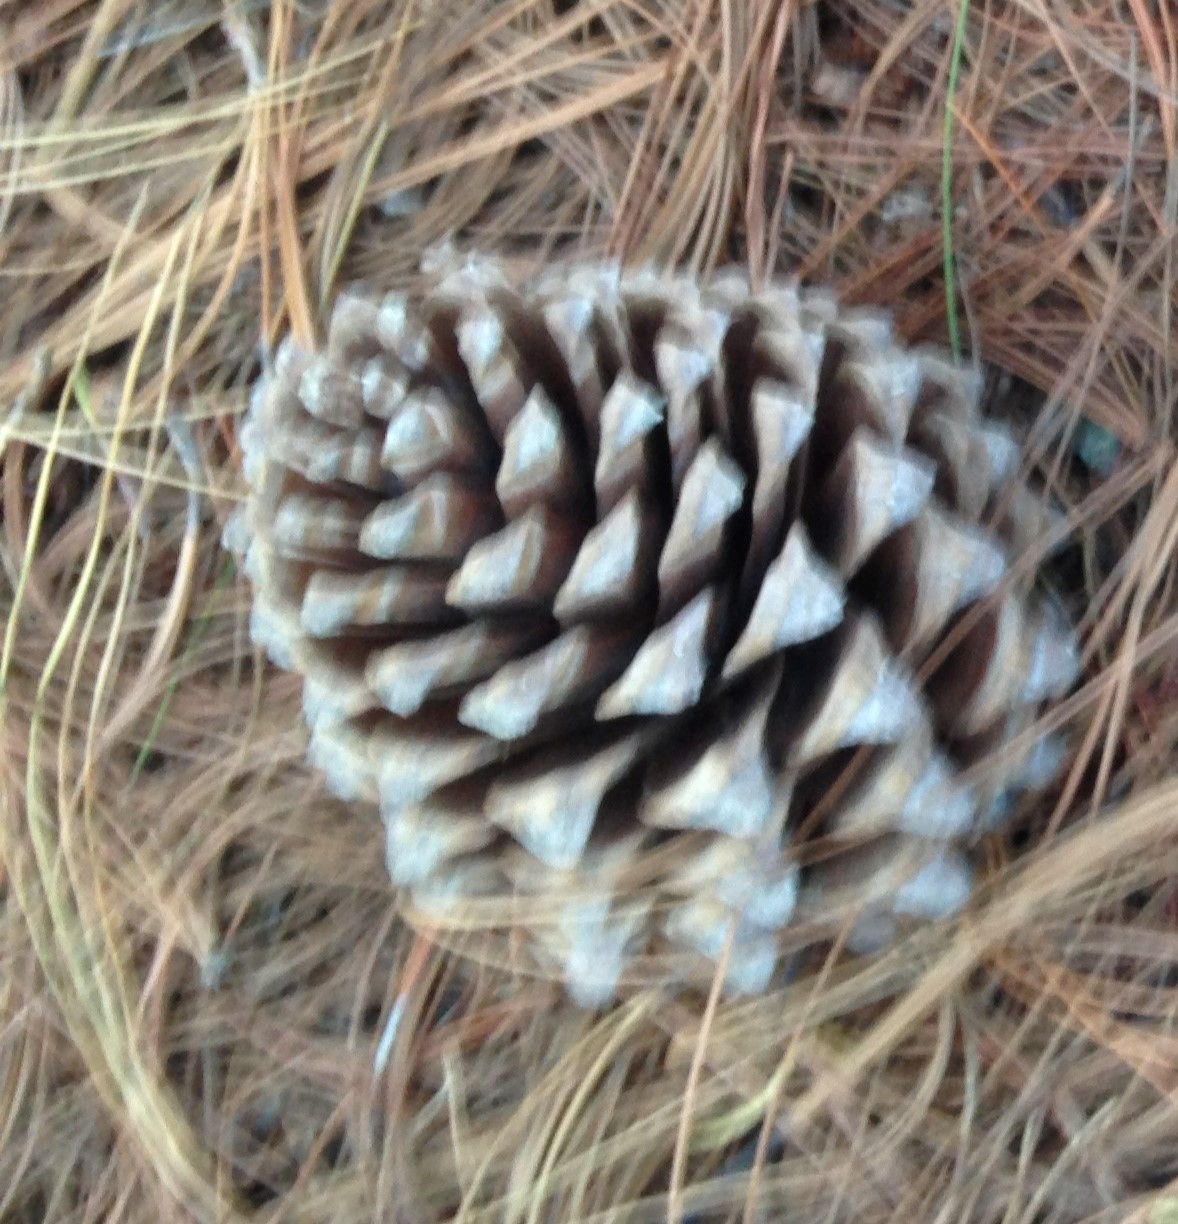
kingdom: Plantae
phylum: Tracheophyta
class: Pinopsida
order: Pinales
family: Pinaceae
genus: Pinus
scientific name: Pinus pseudostrobus
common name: False weymouth pine
